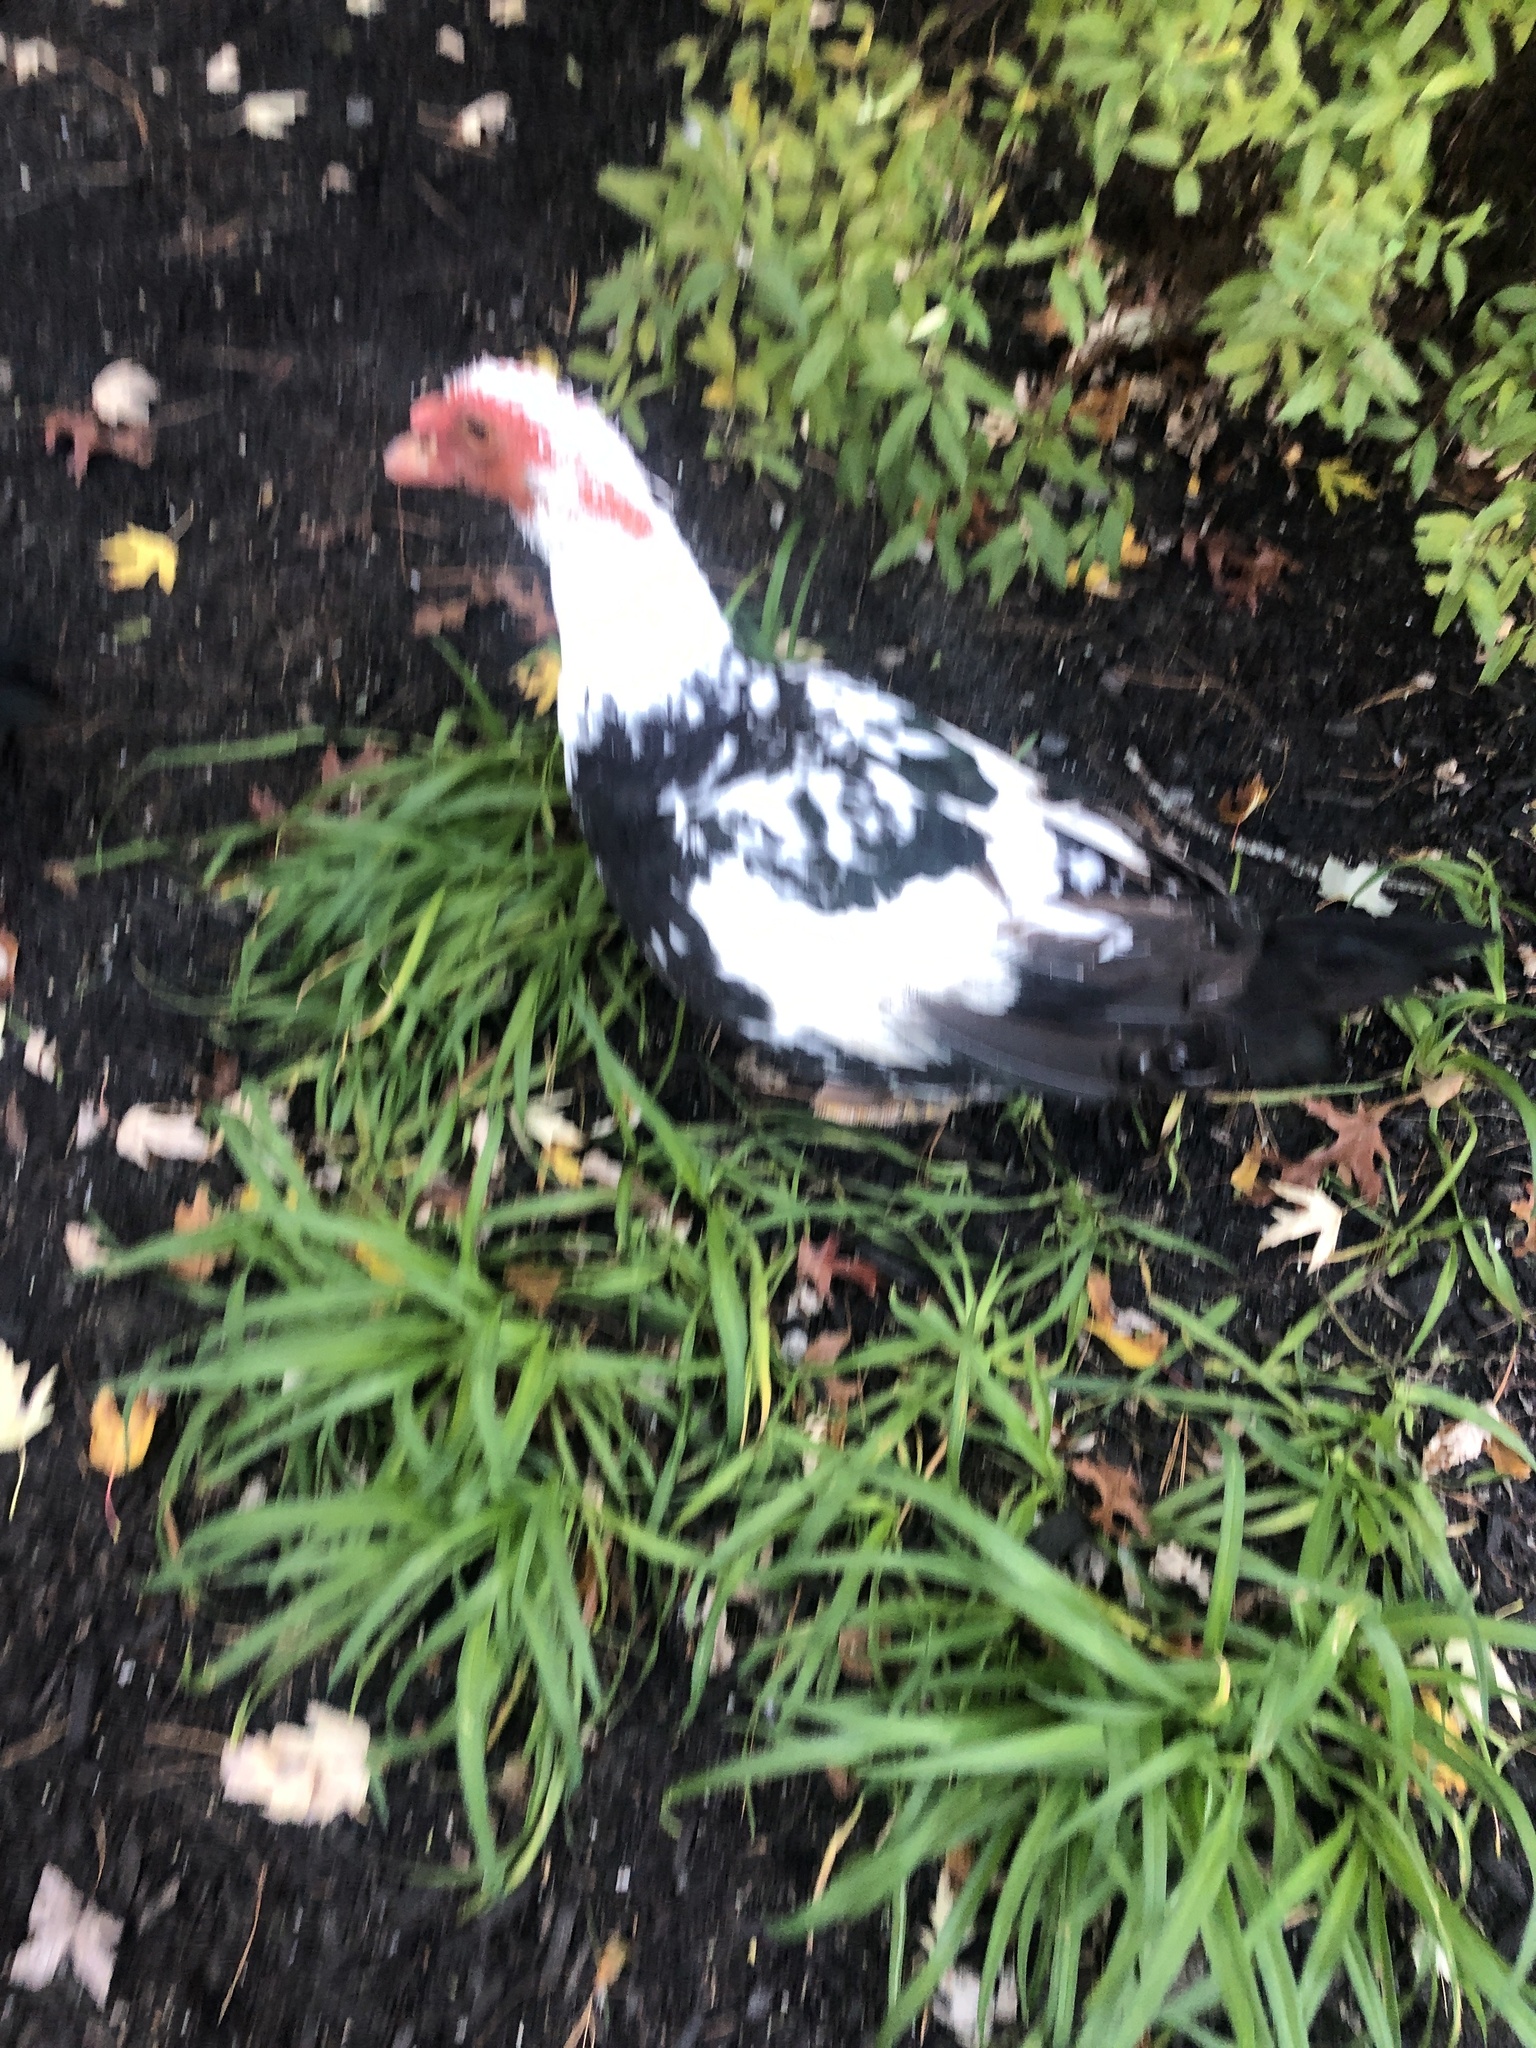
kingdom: Animalia
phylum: Chordata
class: Aves
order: Anseriformes
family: Anatidae
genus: Cairina
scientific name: Cairina moschata
